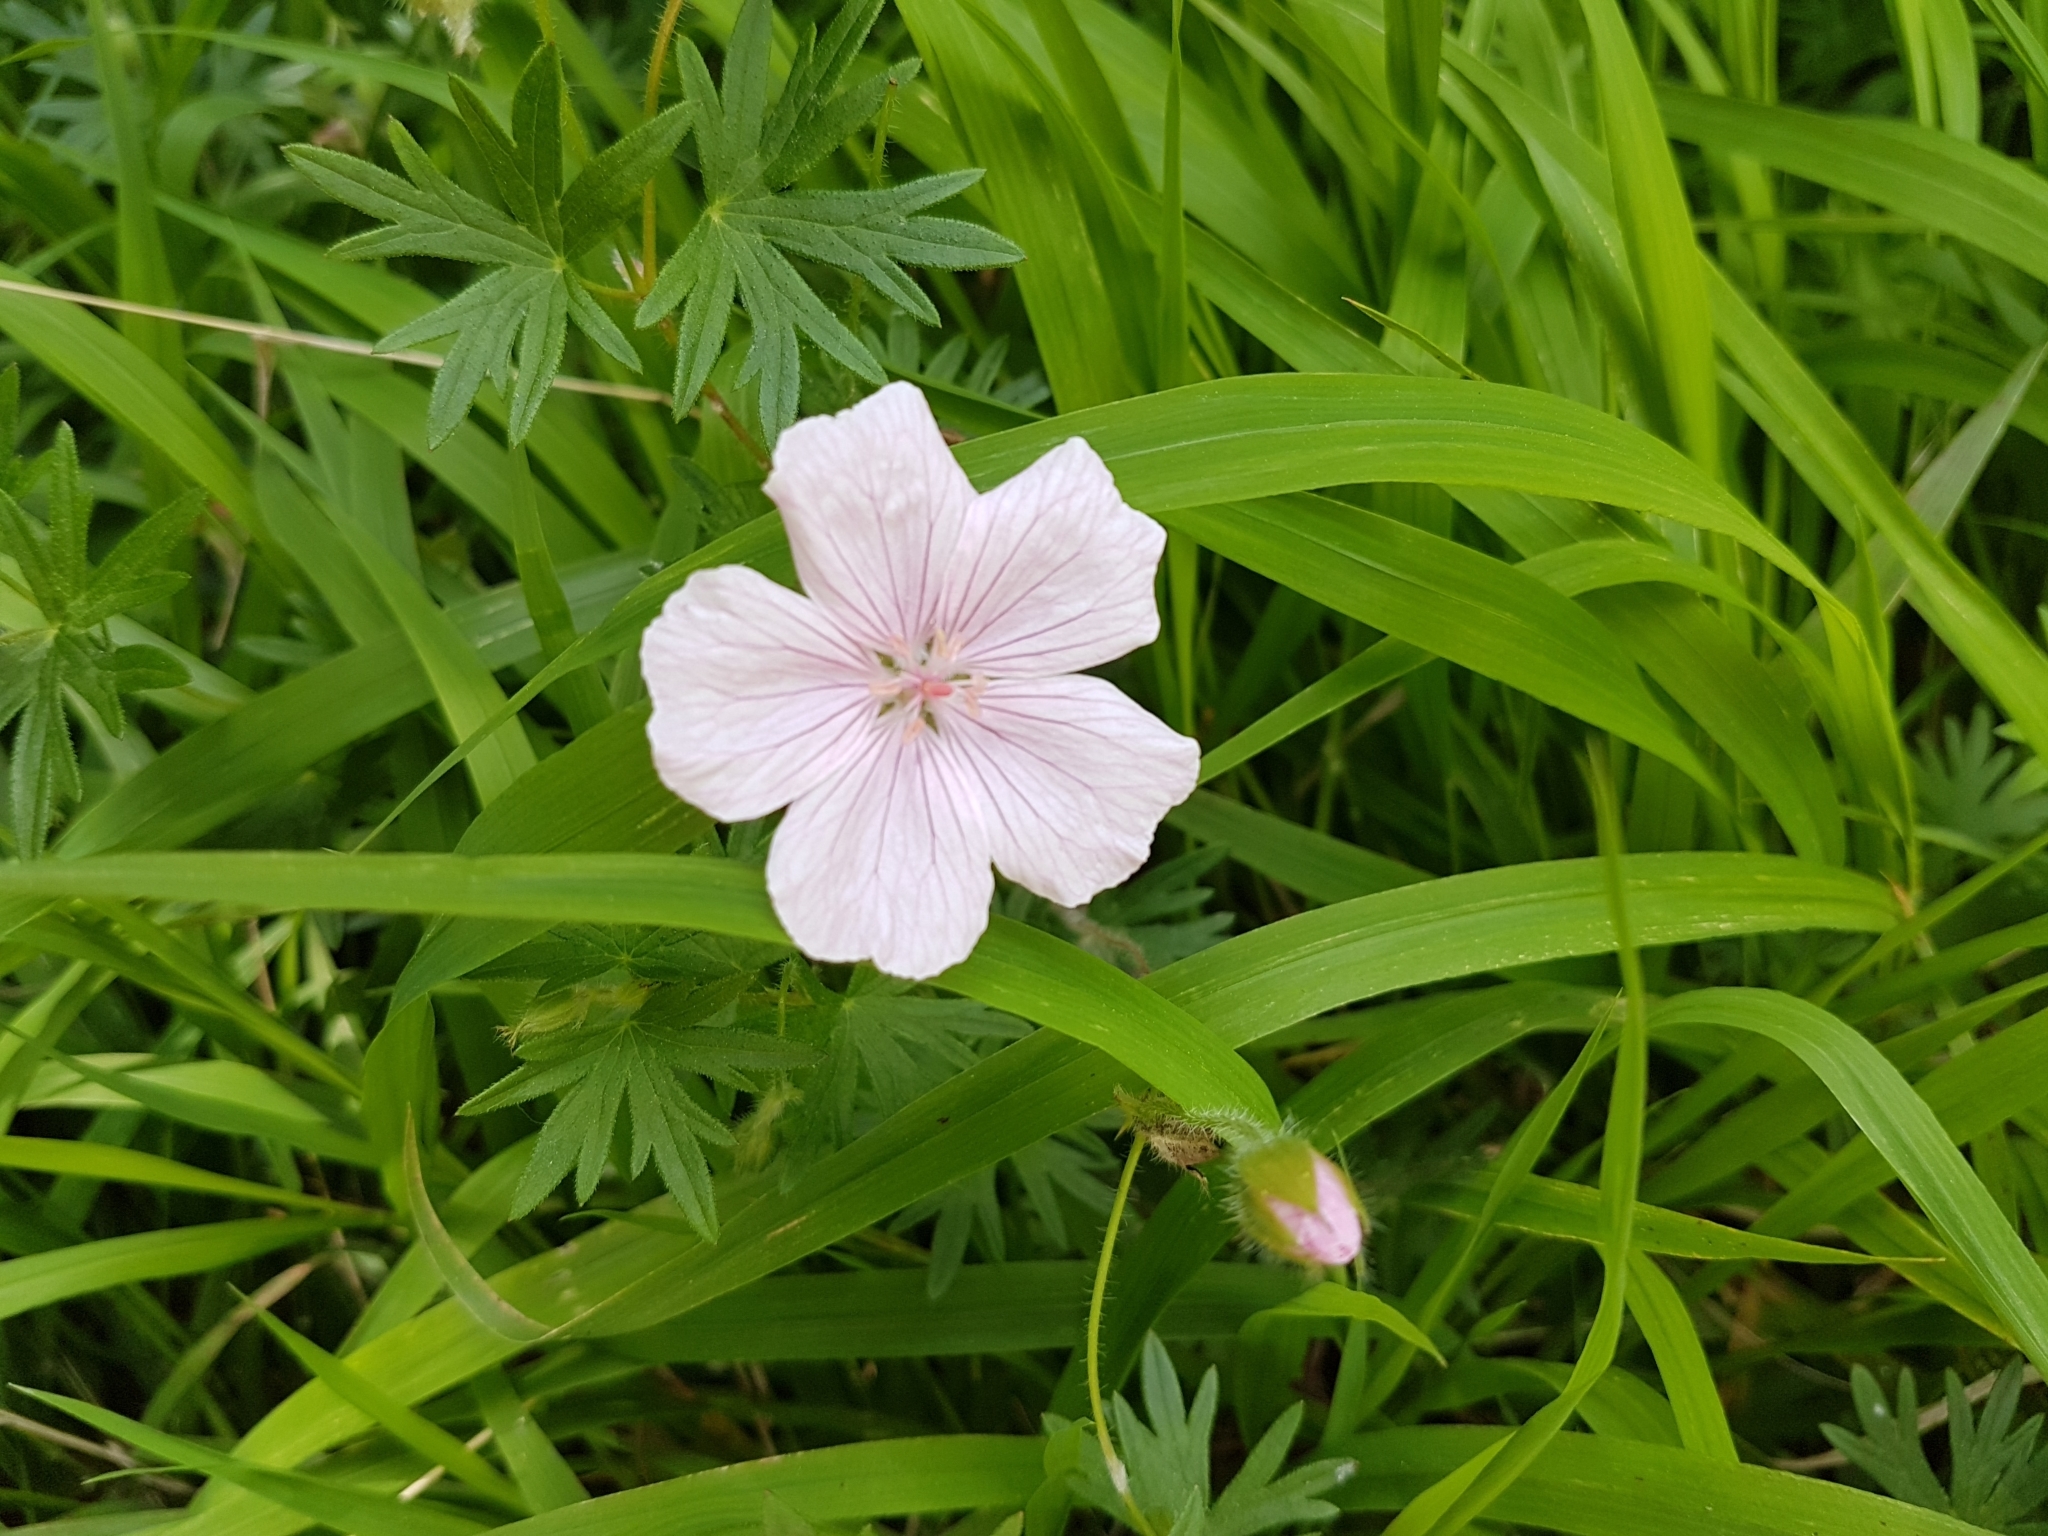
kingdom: Plantae
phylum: Tracheophyta
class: Magnoliopsida
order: Geraniales
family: Geraniaceae
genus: Geranium
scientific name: Geranium sanguineum
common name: Bloody crane's-bill
